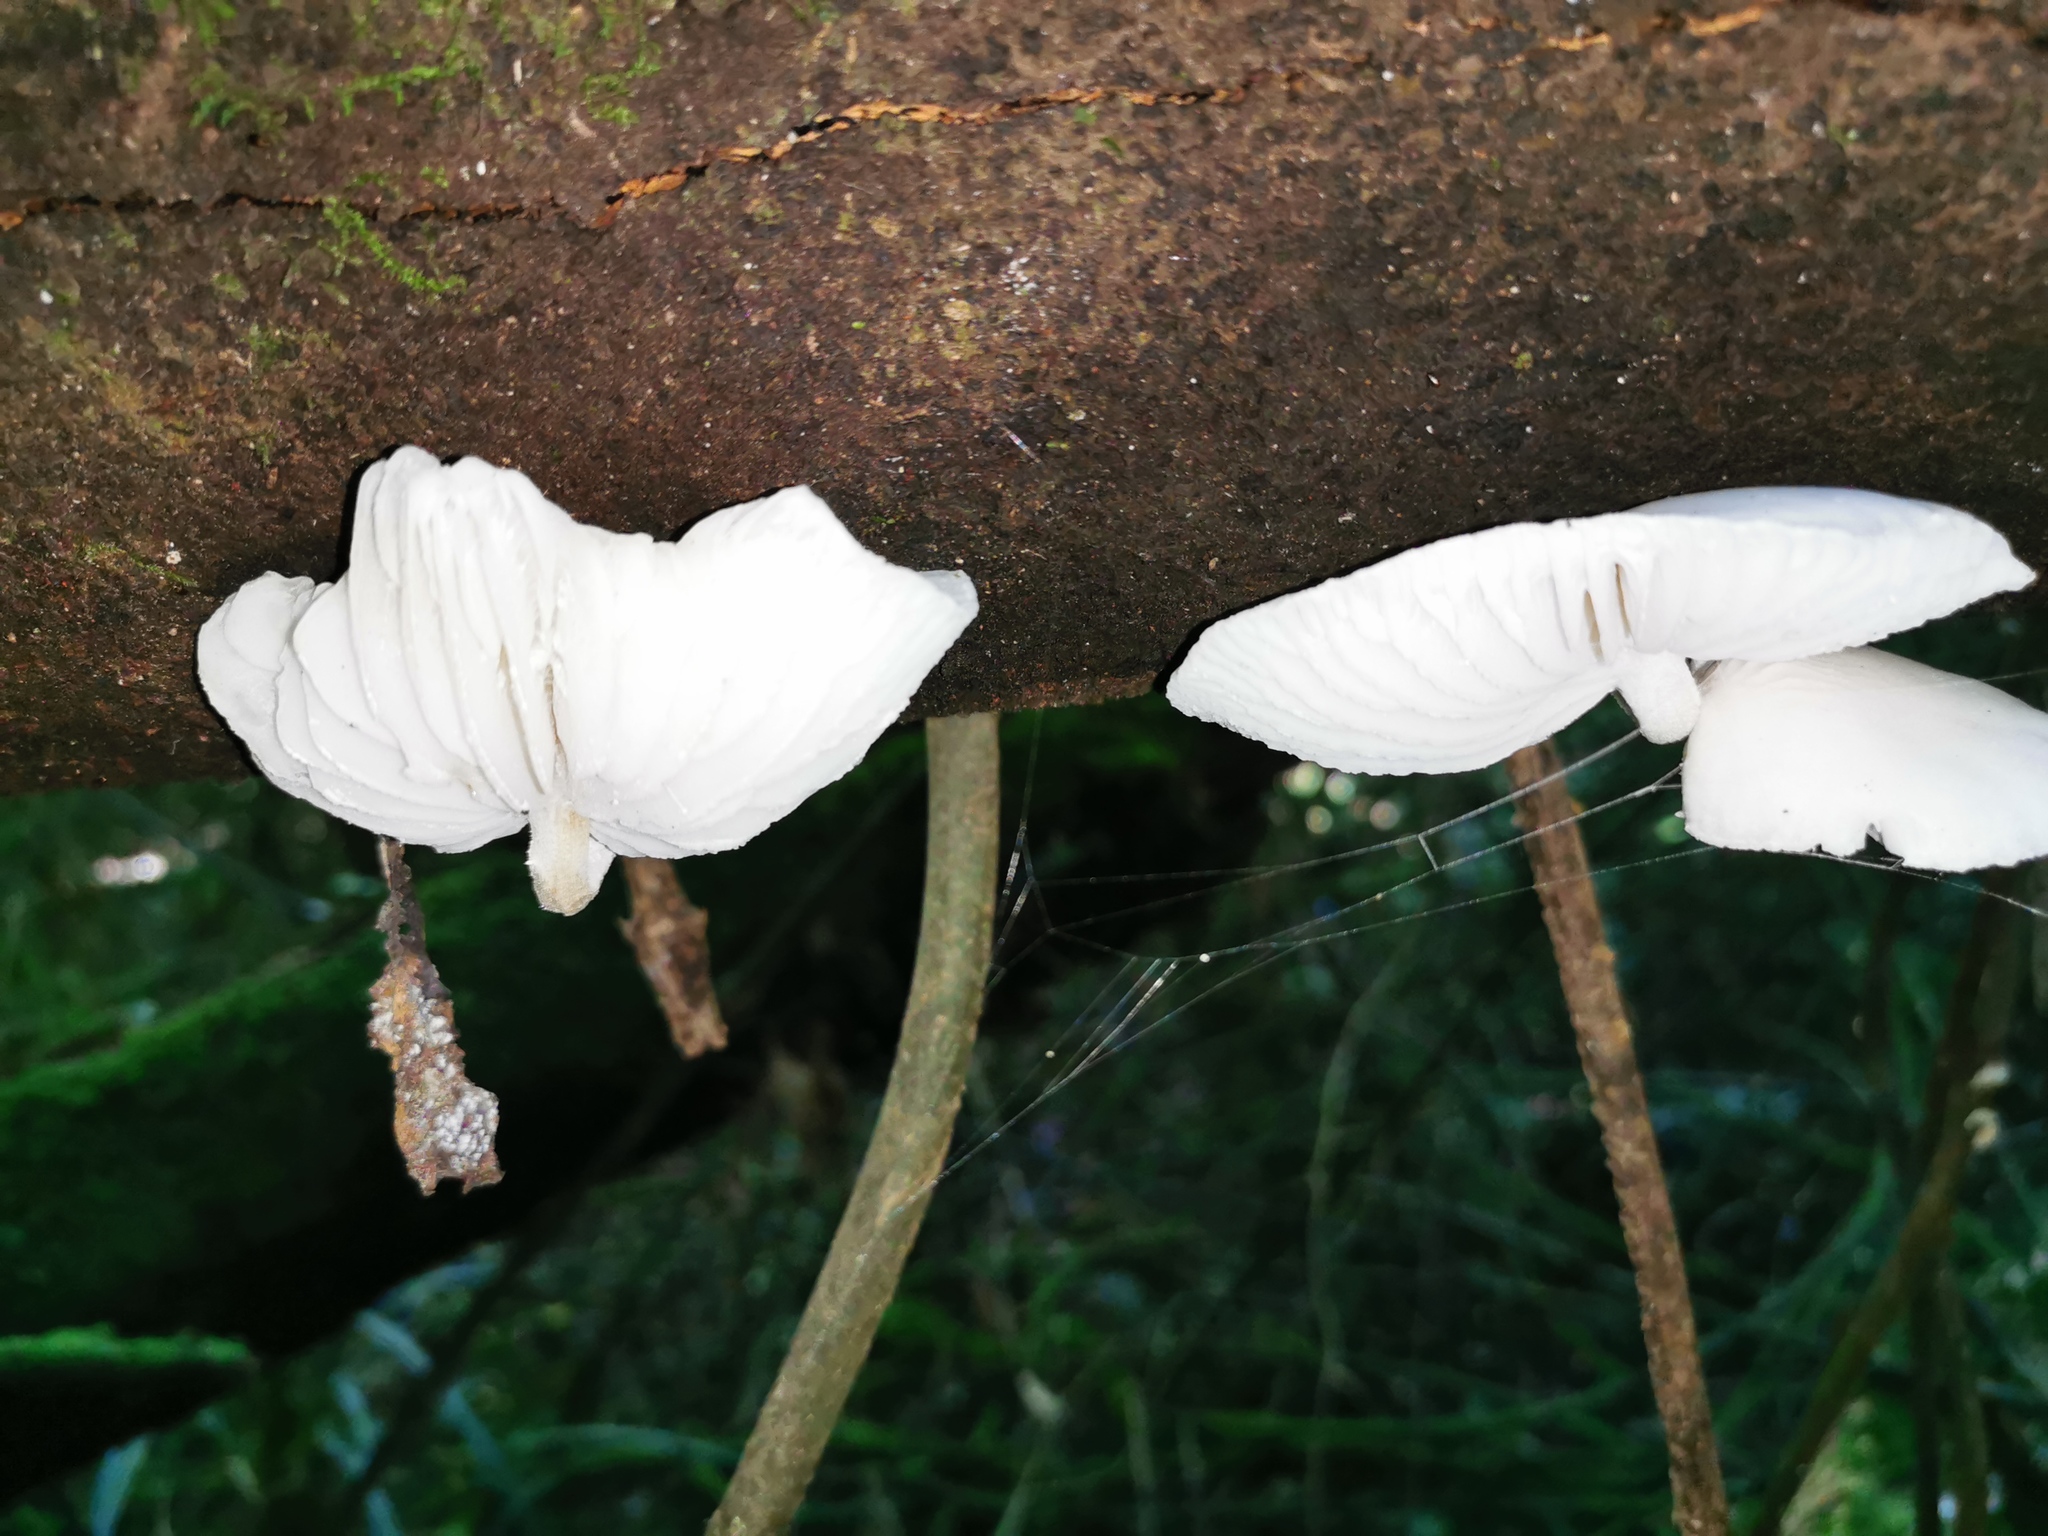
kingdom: Fungi
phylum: Basidiomycota
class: Agaricomycetes
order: Agaricales
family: Physalacriaceae
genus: Oudemansiella
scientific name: Oudemansiella australis
